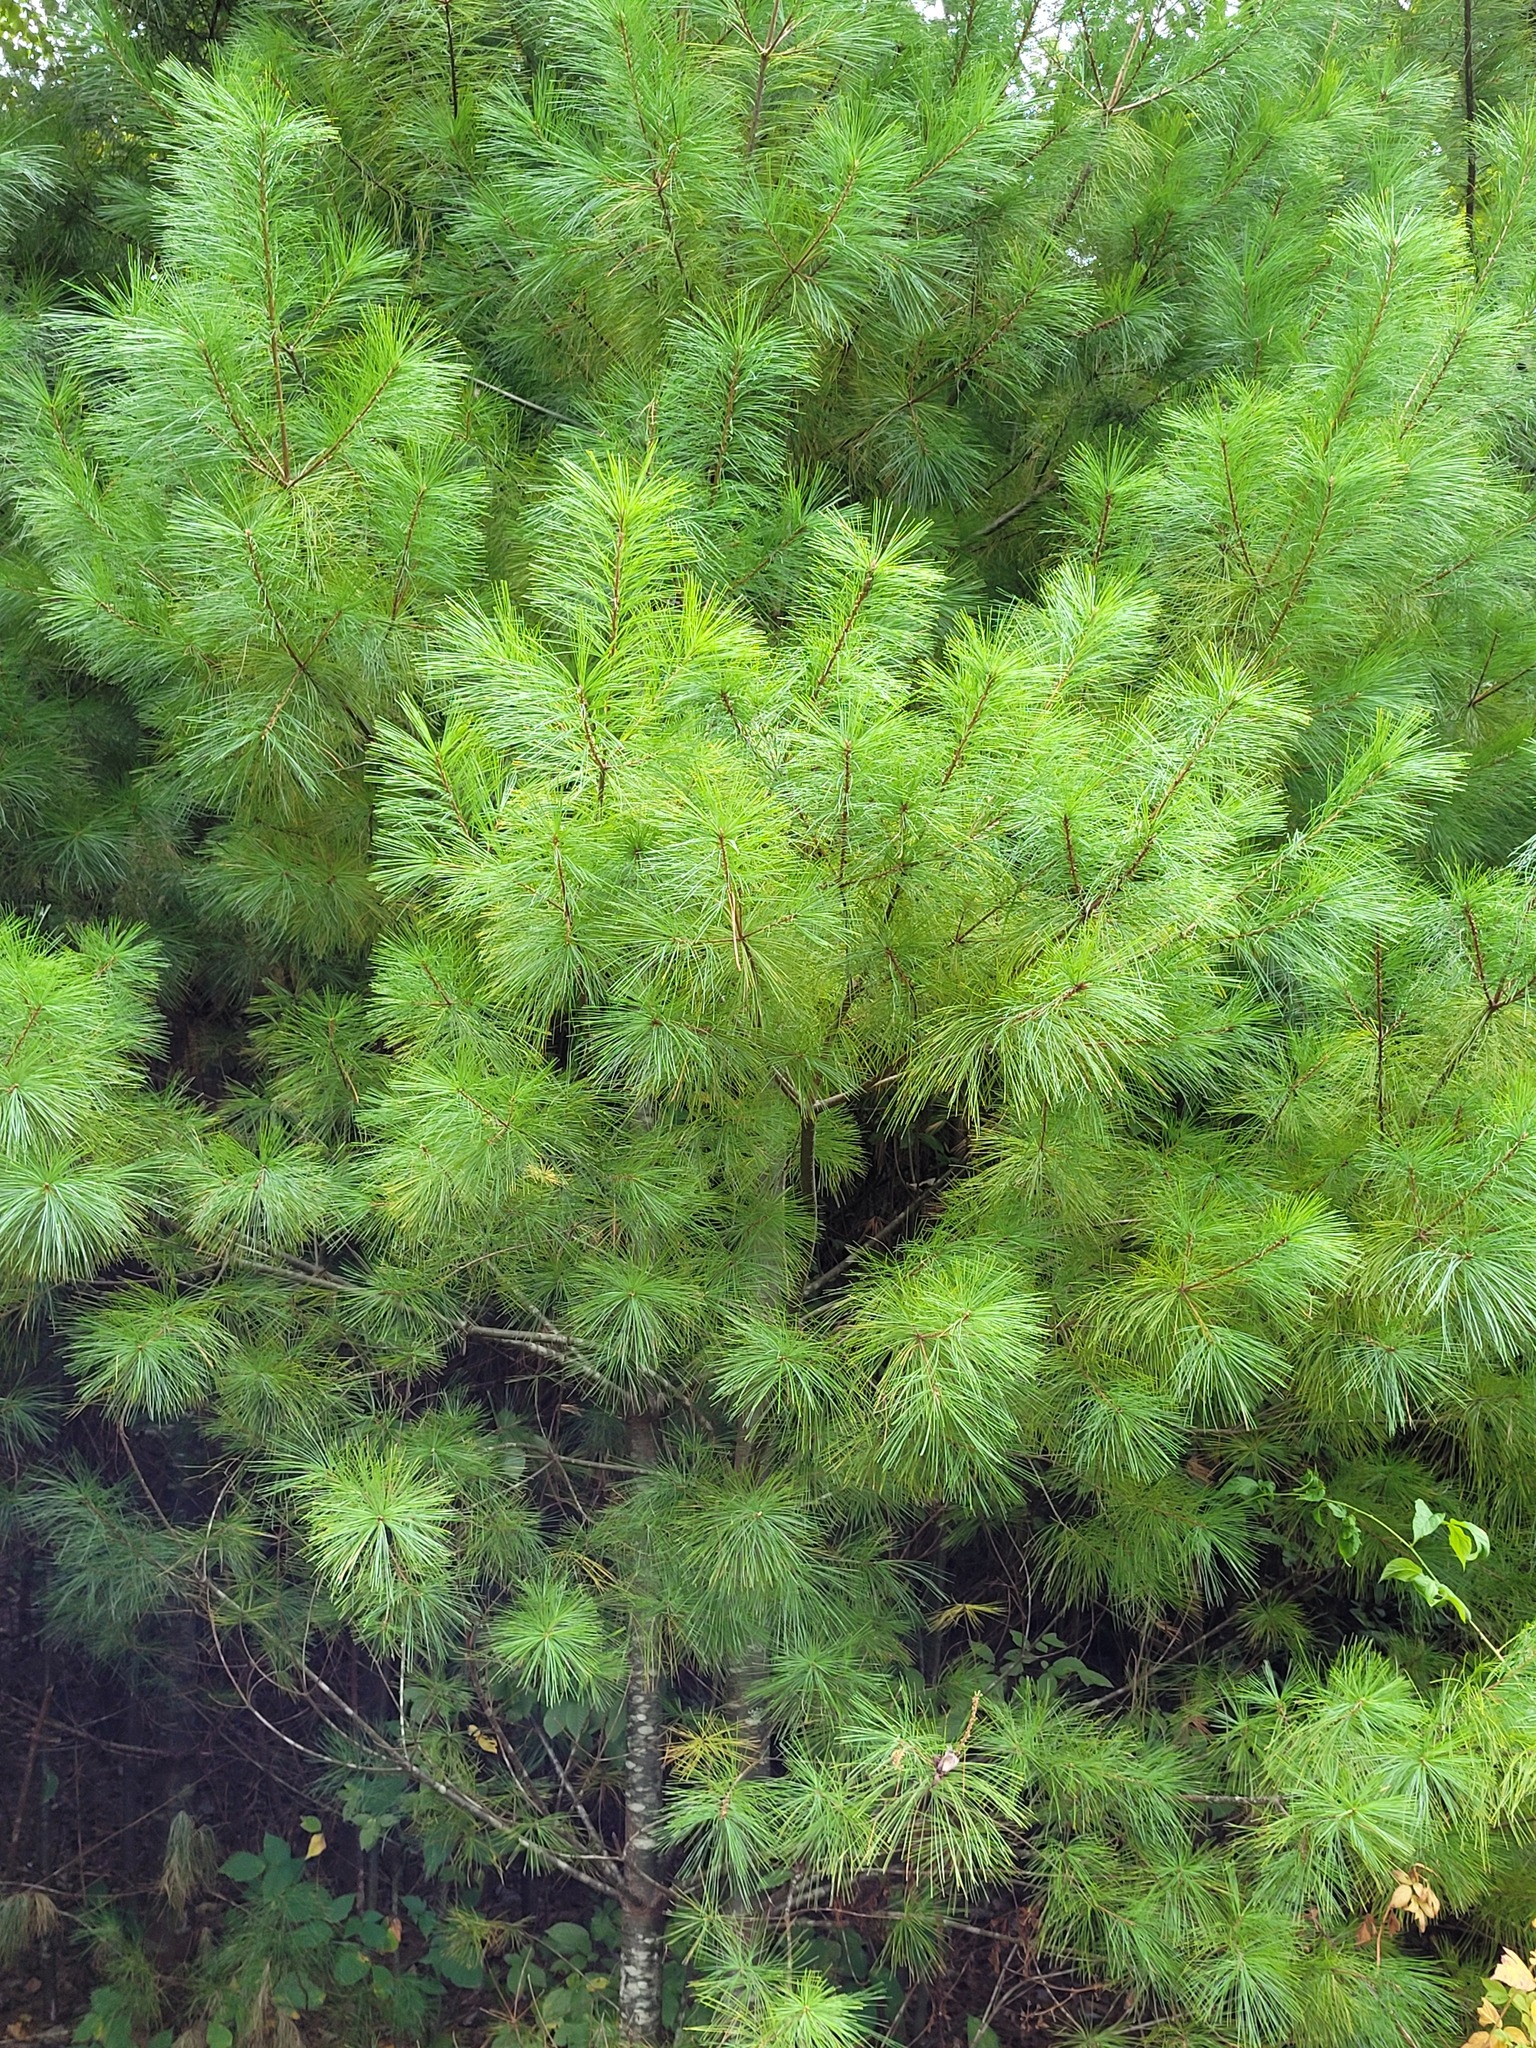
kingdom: Plantae
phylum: Tracheophyta
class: Pinopsida
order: Pinales
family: Pinaceae
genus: Pinus
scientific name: Pinus strobus
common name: Weymouth pine
